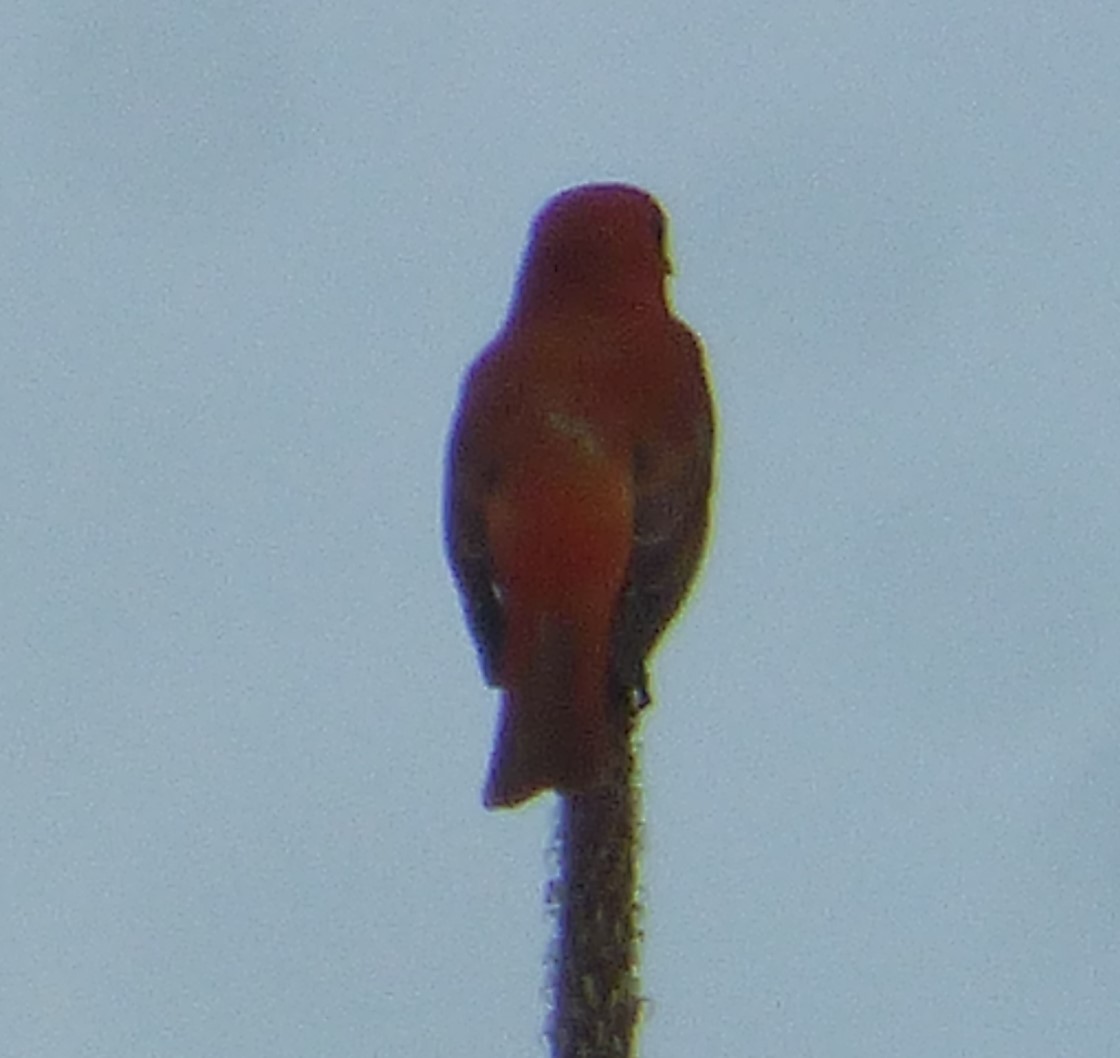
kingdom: Animalia
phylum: Chordata
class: Aves
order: Passeriformes
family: Cardinalidae
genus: Piranga
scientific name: Piranga olivacea
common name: Scarlet tanager
